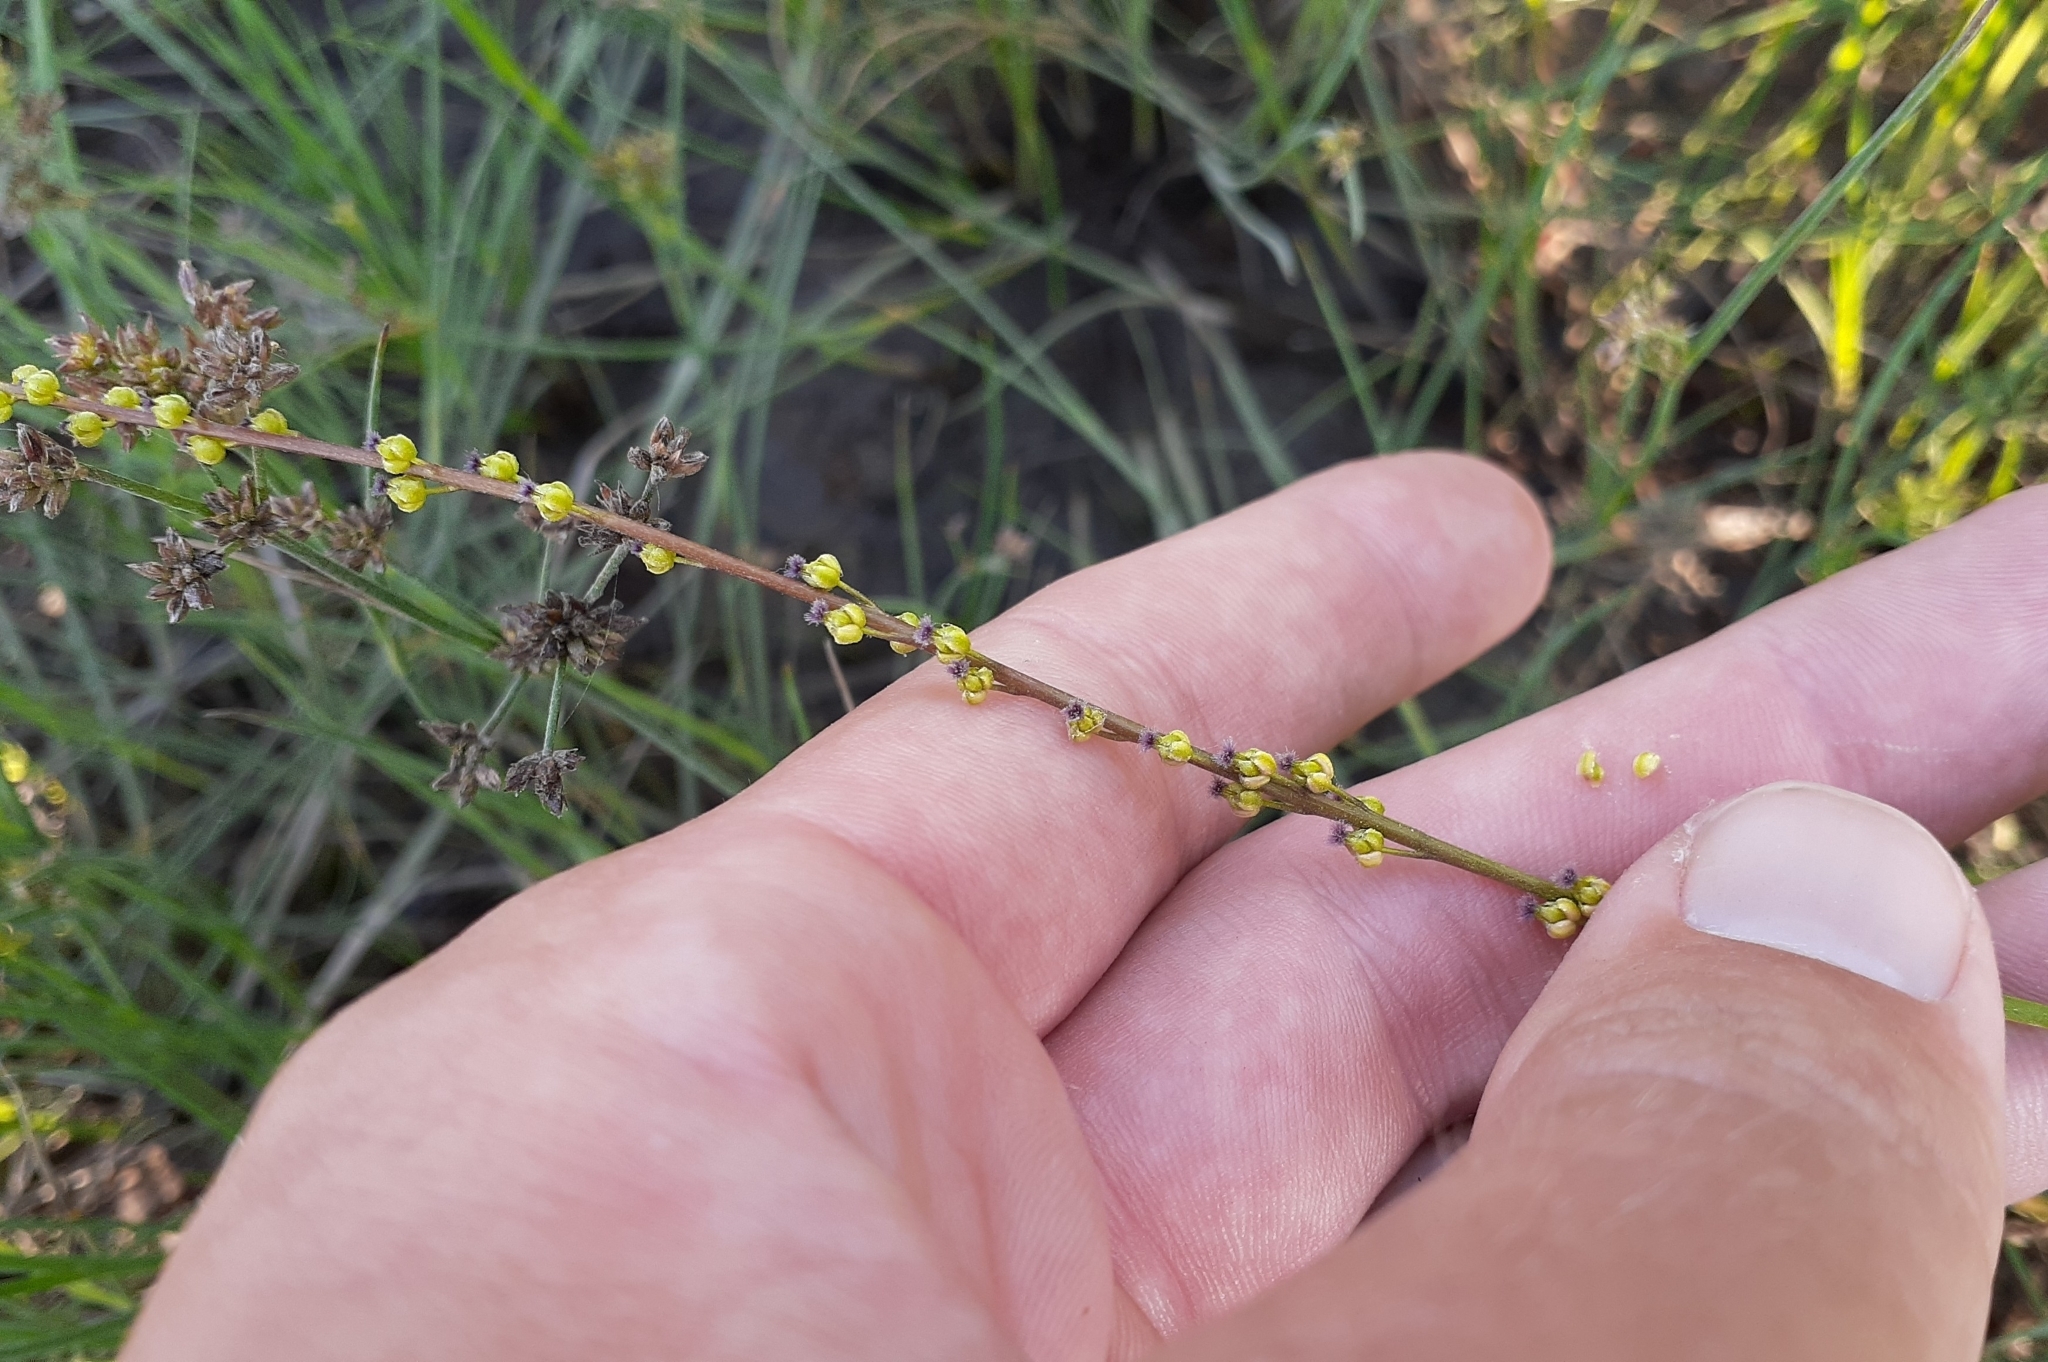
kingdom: Plantae
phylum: Tracheophyta
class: Liliopsida
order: Alismatales
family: Juncaginaceae
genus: Triglochin
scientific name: Triglochin palustris
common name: Marsh arrowgrass
